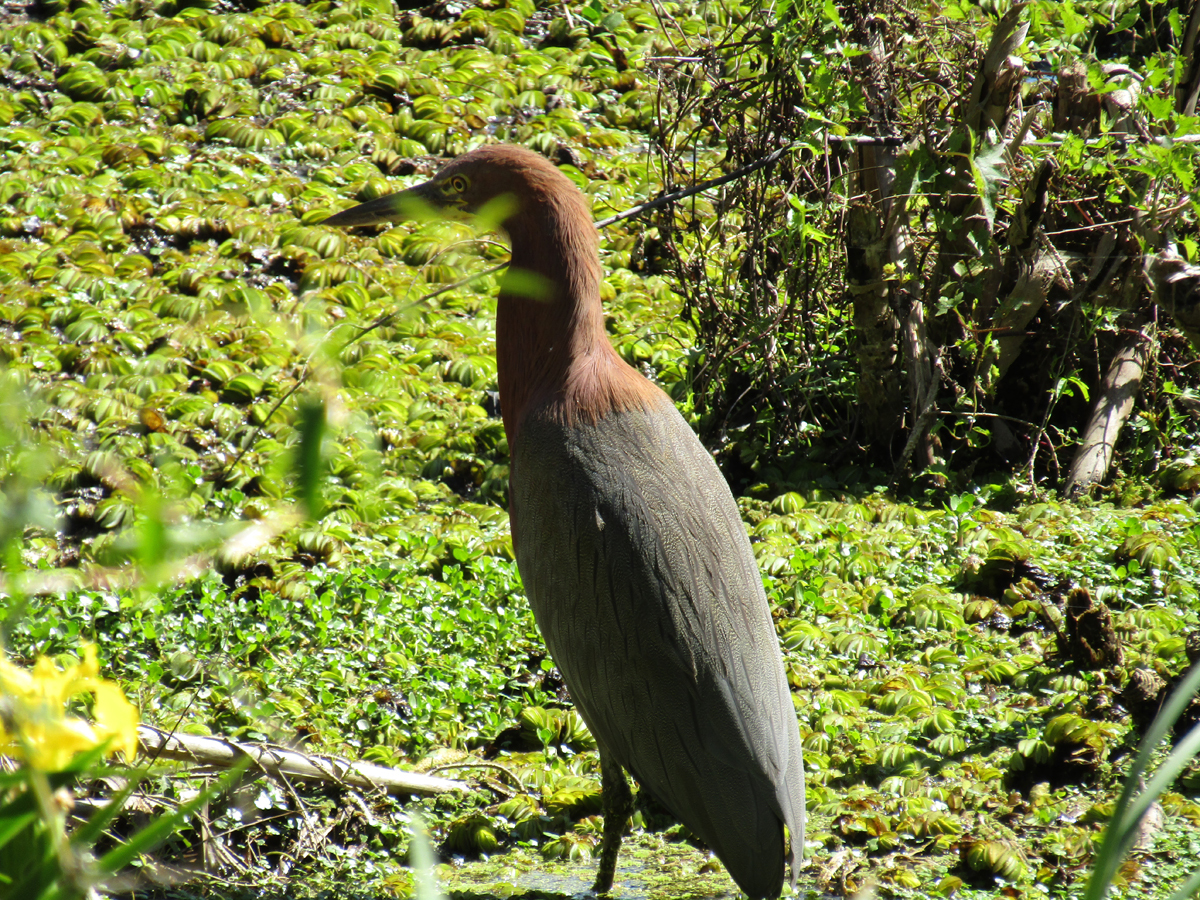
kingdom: Animalia
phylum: Chordata
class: Aves
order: Pelecaniformes
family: Ardeidae
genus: Tigrisoma
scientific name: Tigrisoma lineatum
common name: Rufescent tiger-heron
